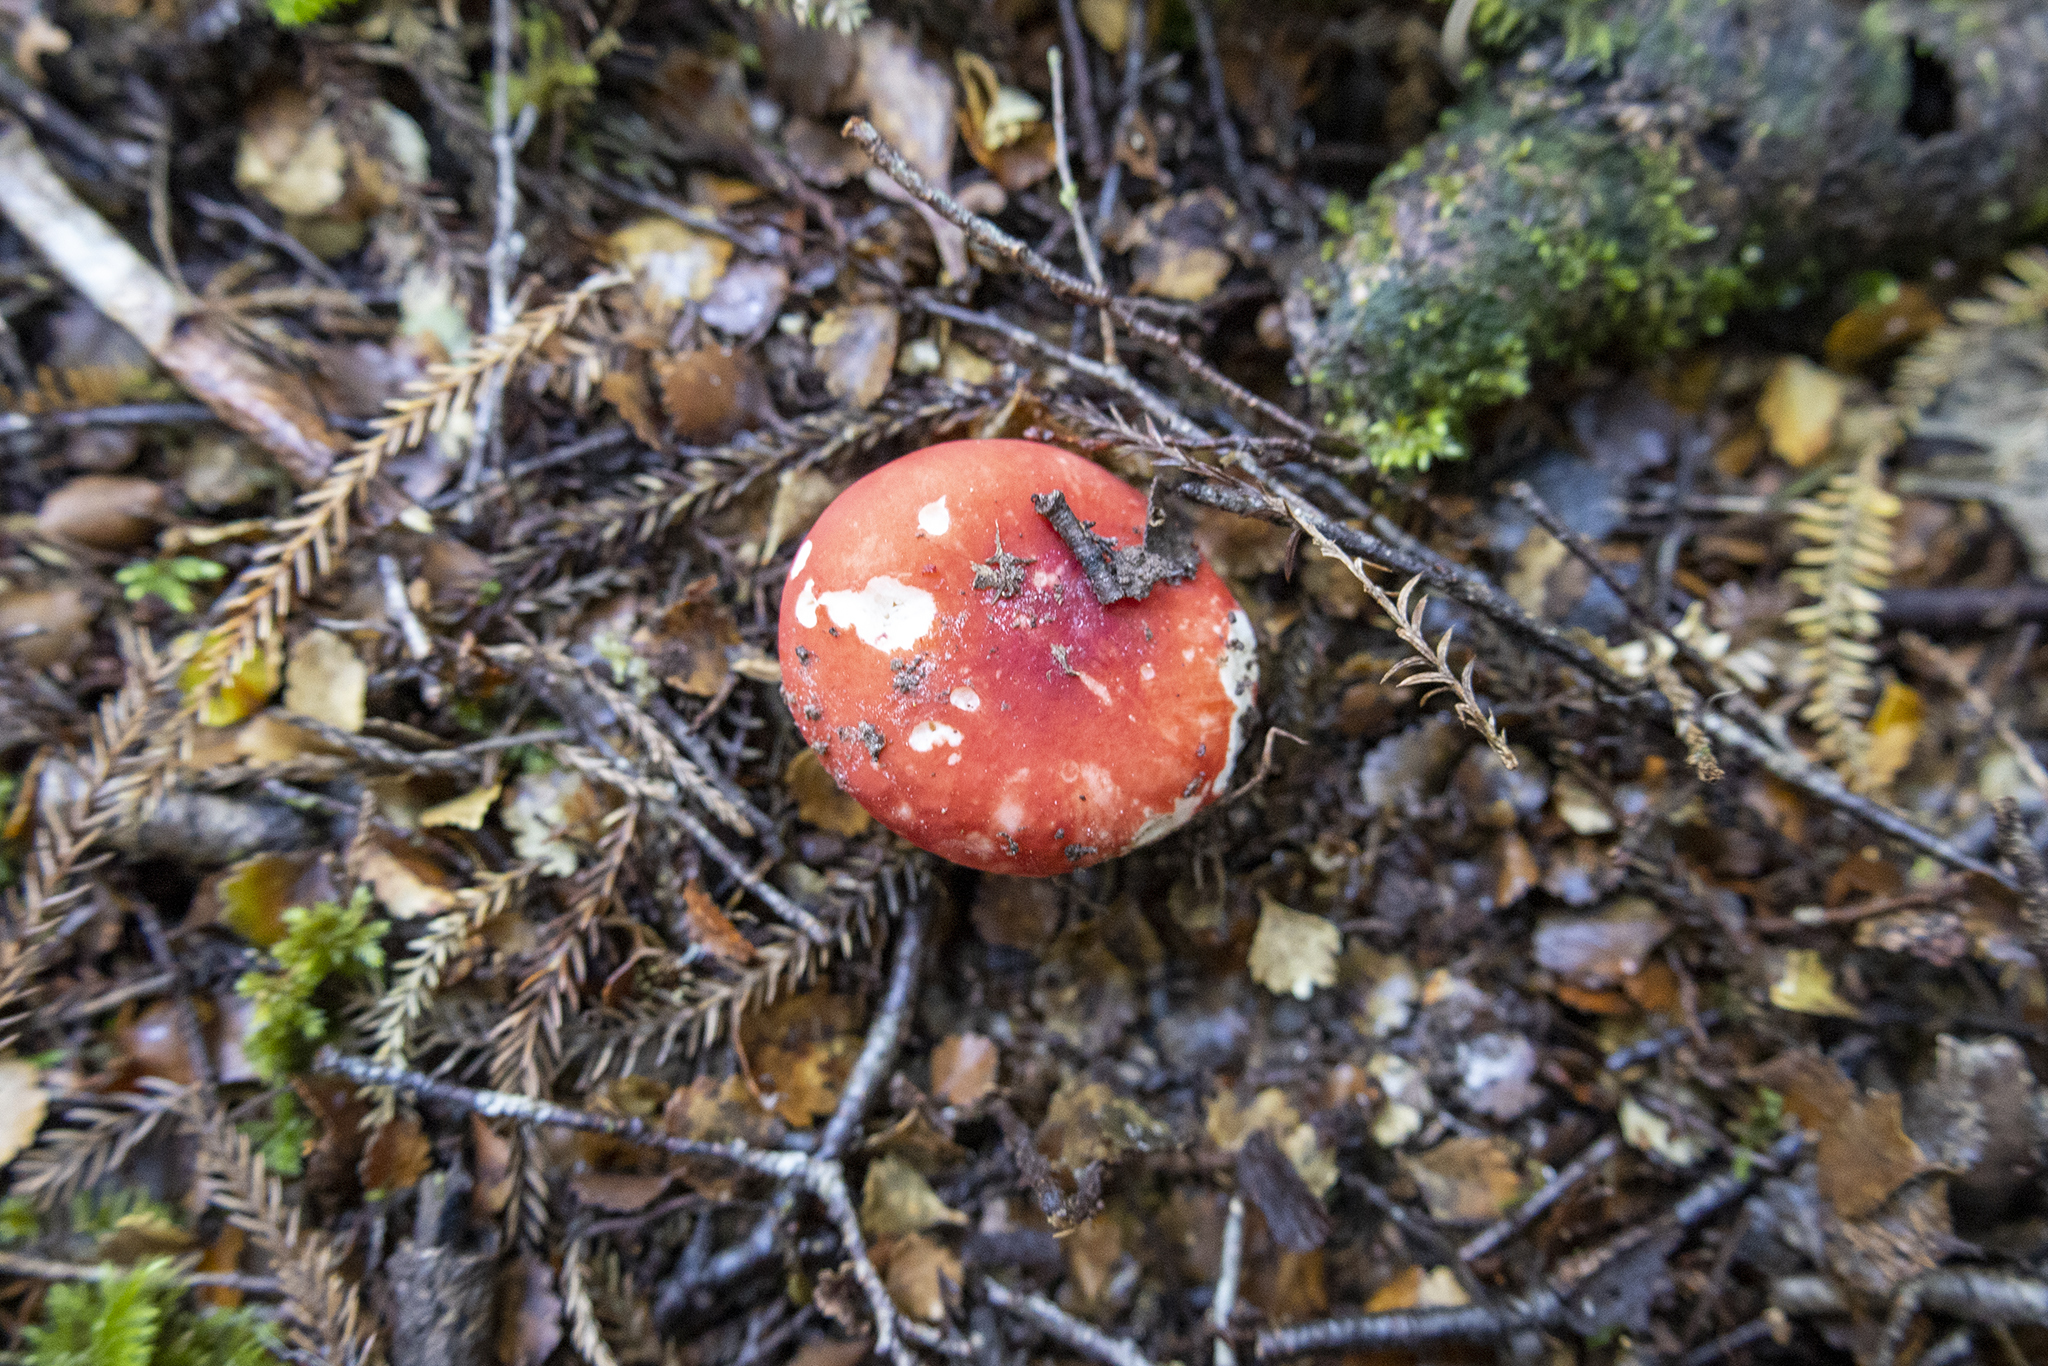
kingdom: Fungi
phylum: Basidiomycota
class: Agaricomycetes
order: Russulales
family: Russulaceae
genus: Russula
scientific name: Russula kermesina
